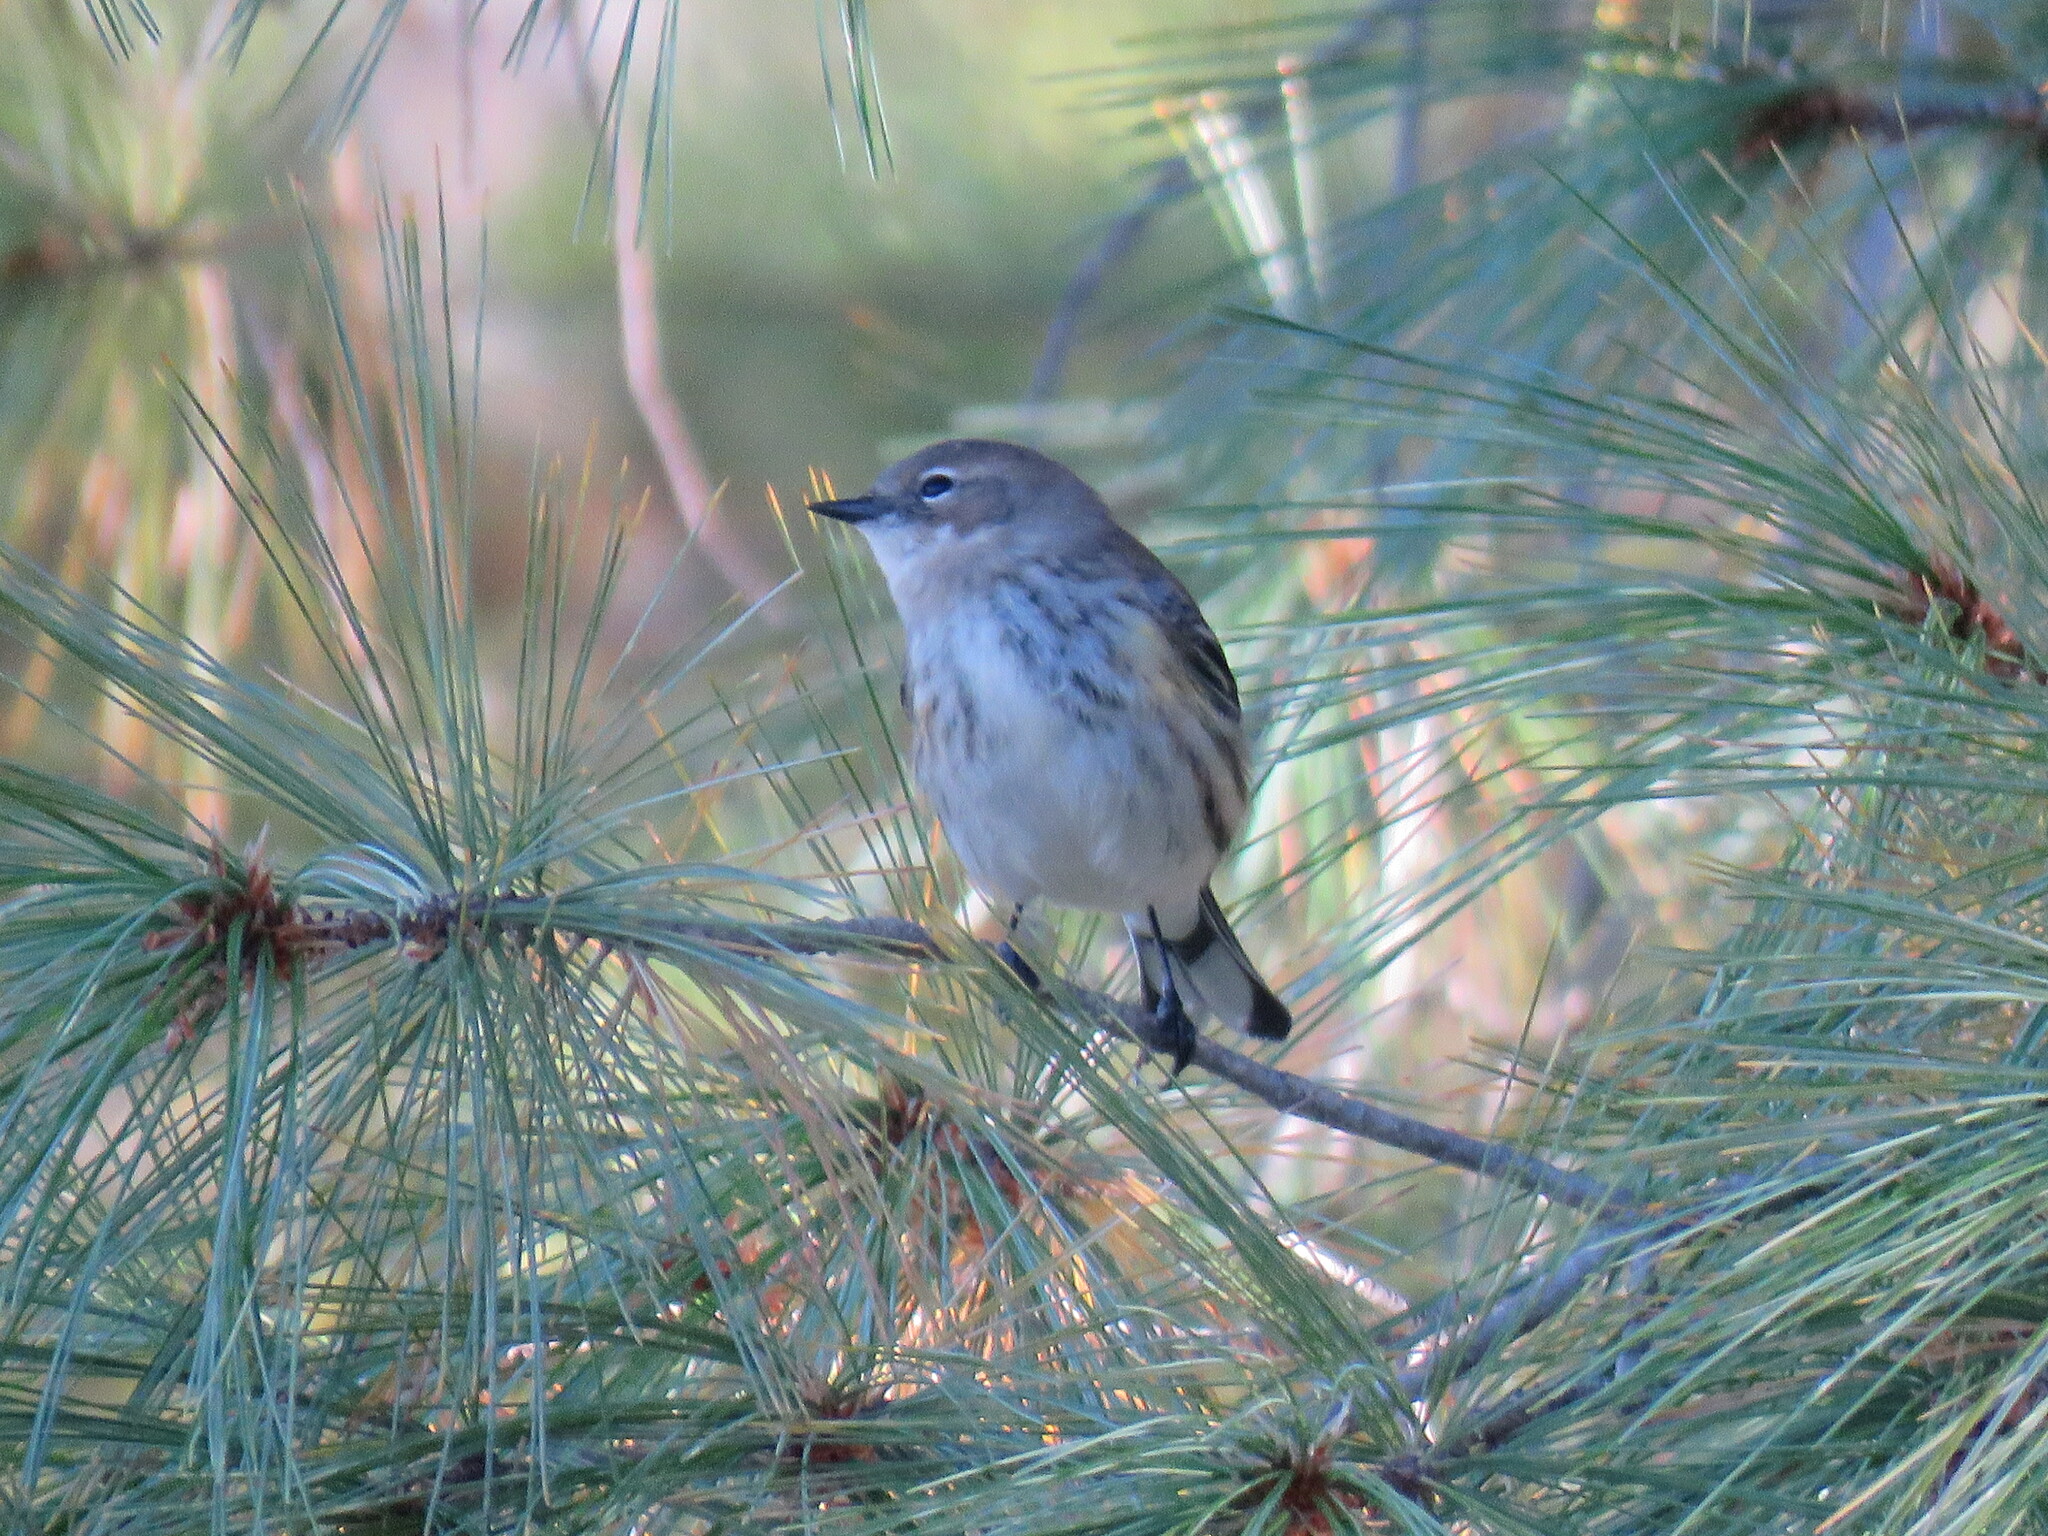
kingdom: Animalia
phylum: Chordata
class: Aves
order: Passeriformes
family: Parulidae
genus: Setophaga
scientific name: Setophaga coronata
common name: Myrtle warbler
